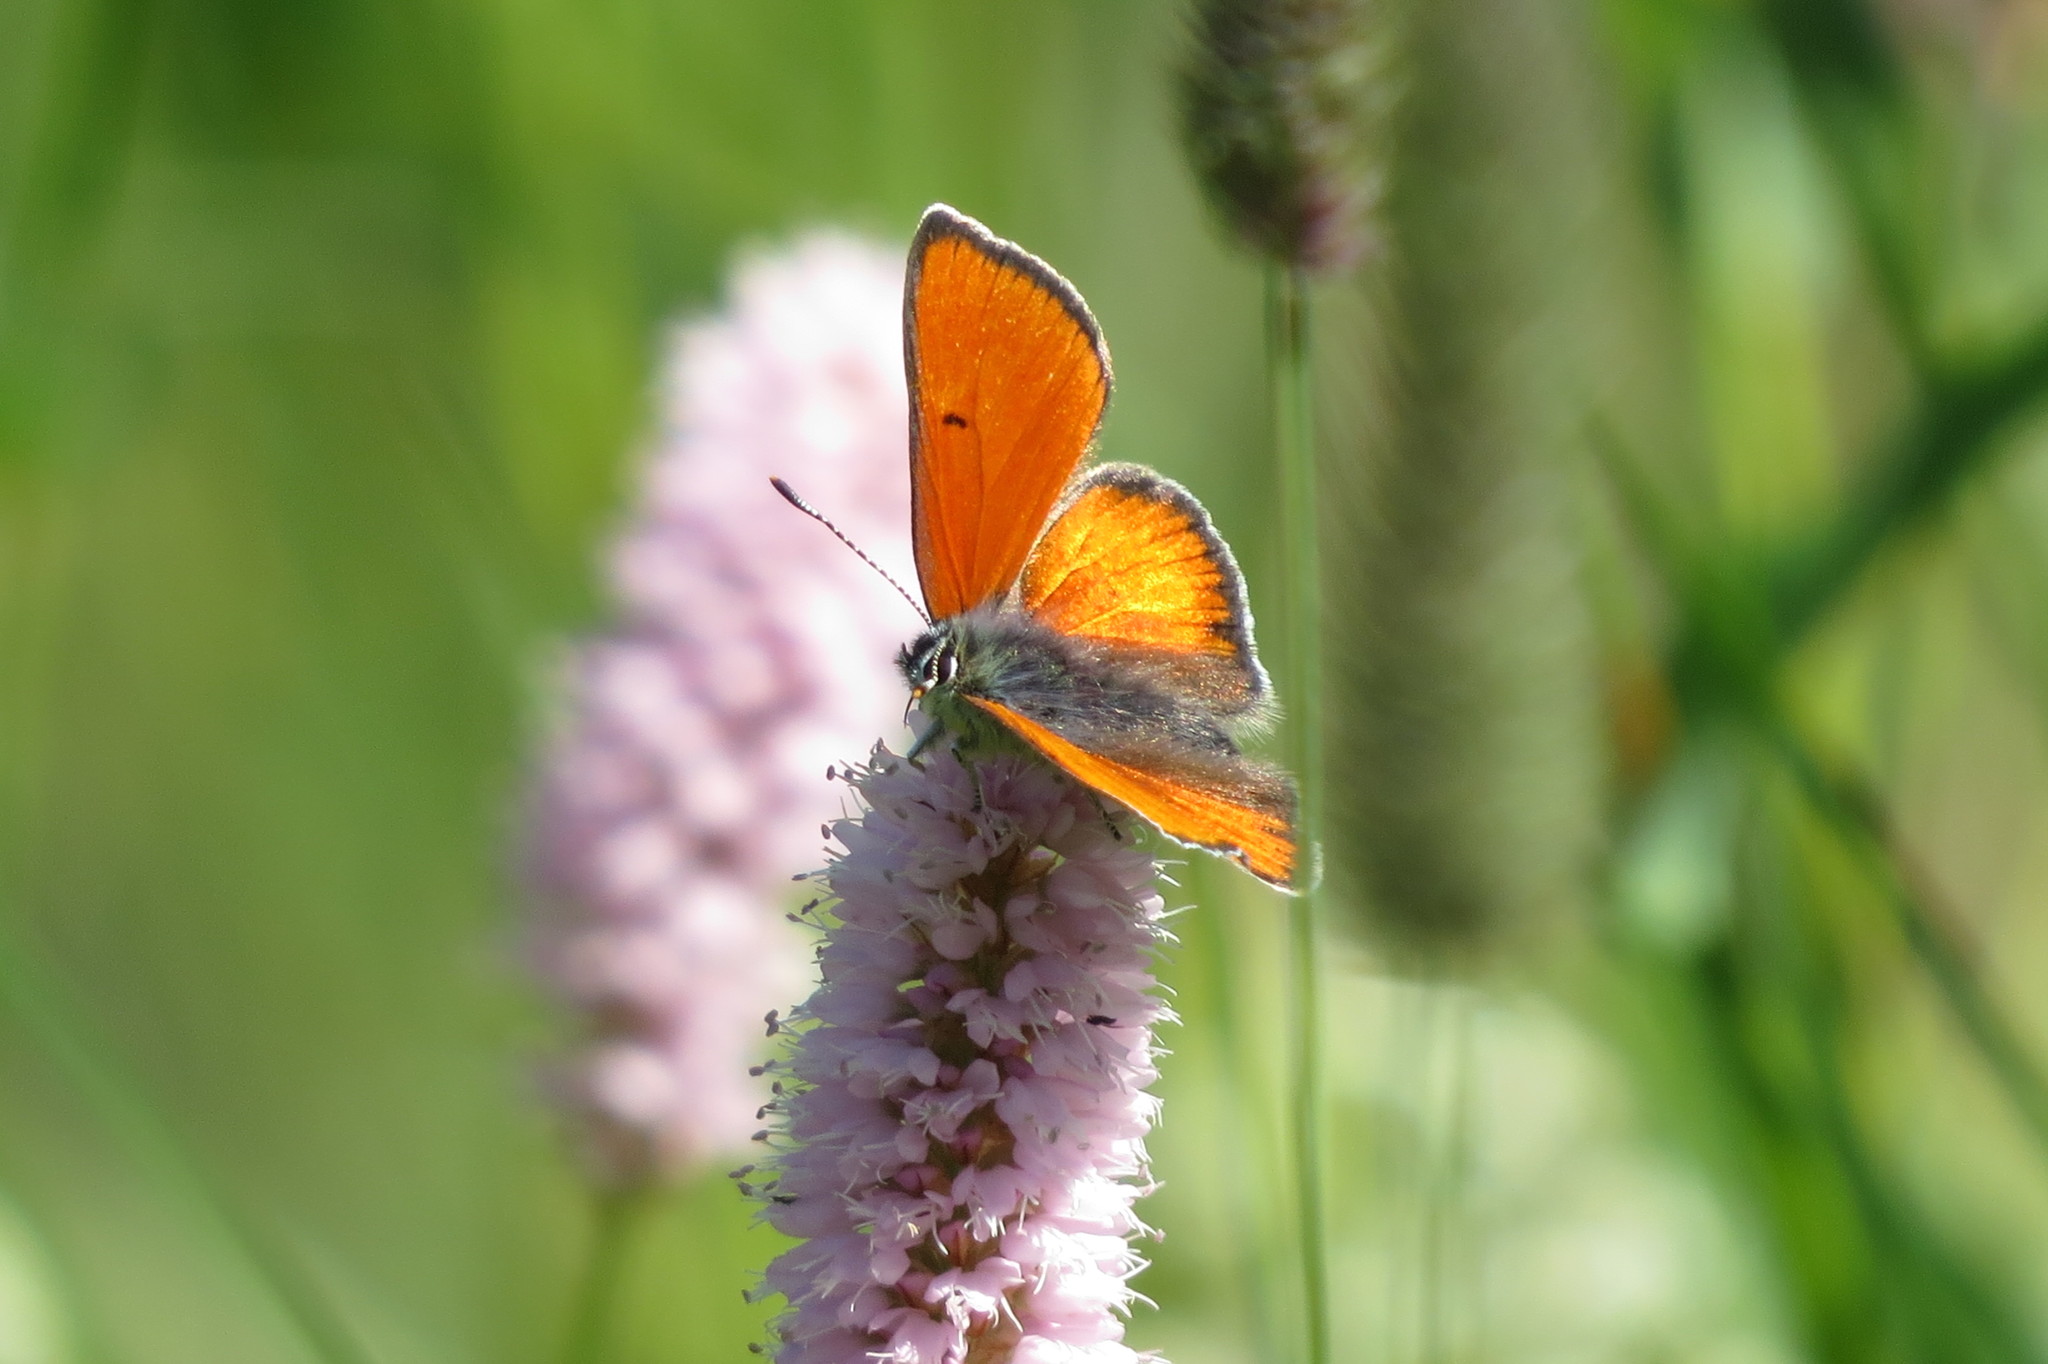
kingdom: Animalia
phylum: Arthropoda
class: Insecta
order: Lepidoptera
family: Lycaenidae
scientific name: Lycaenidae
